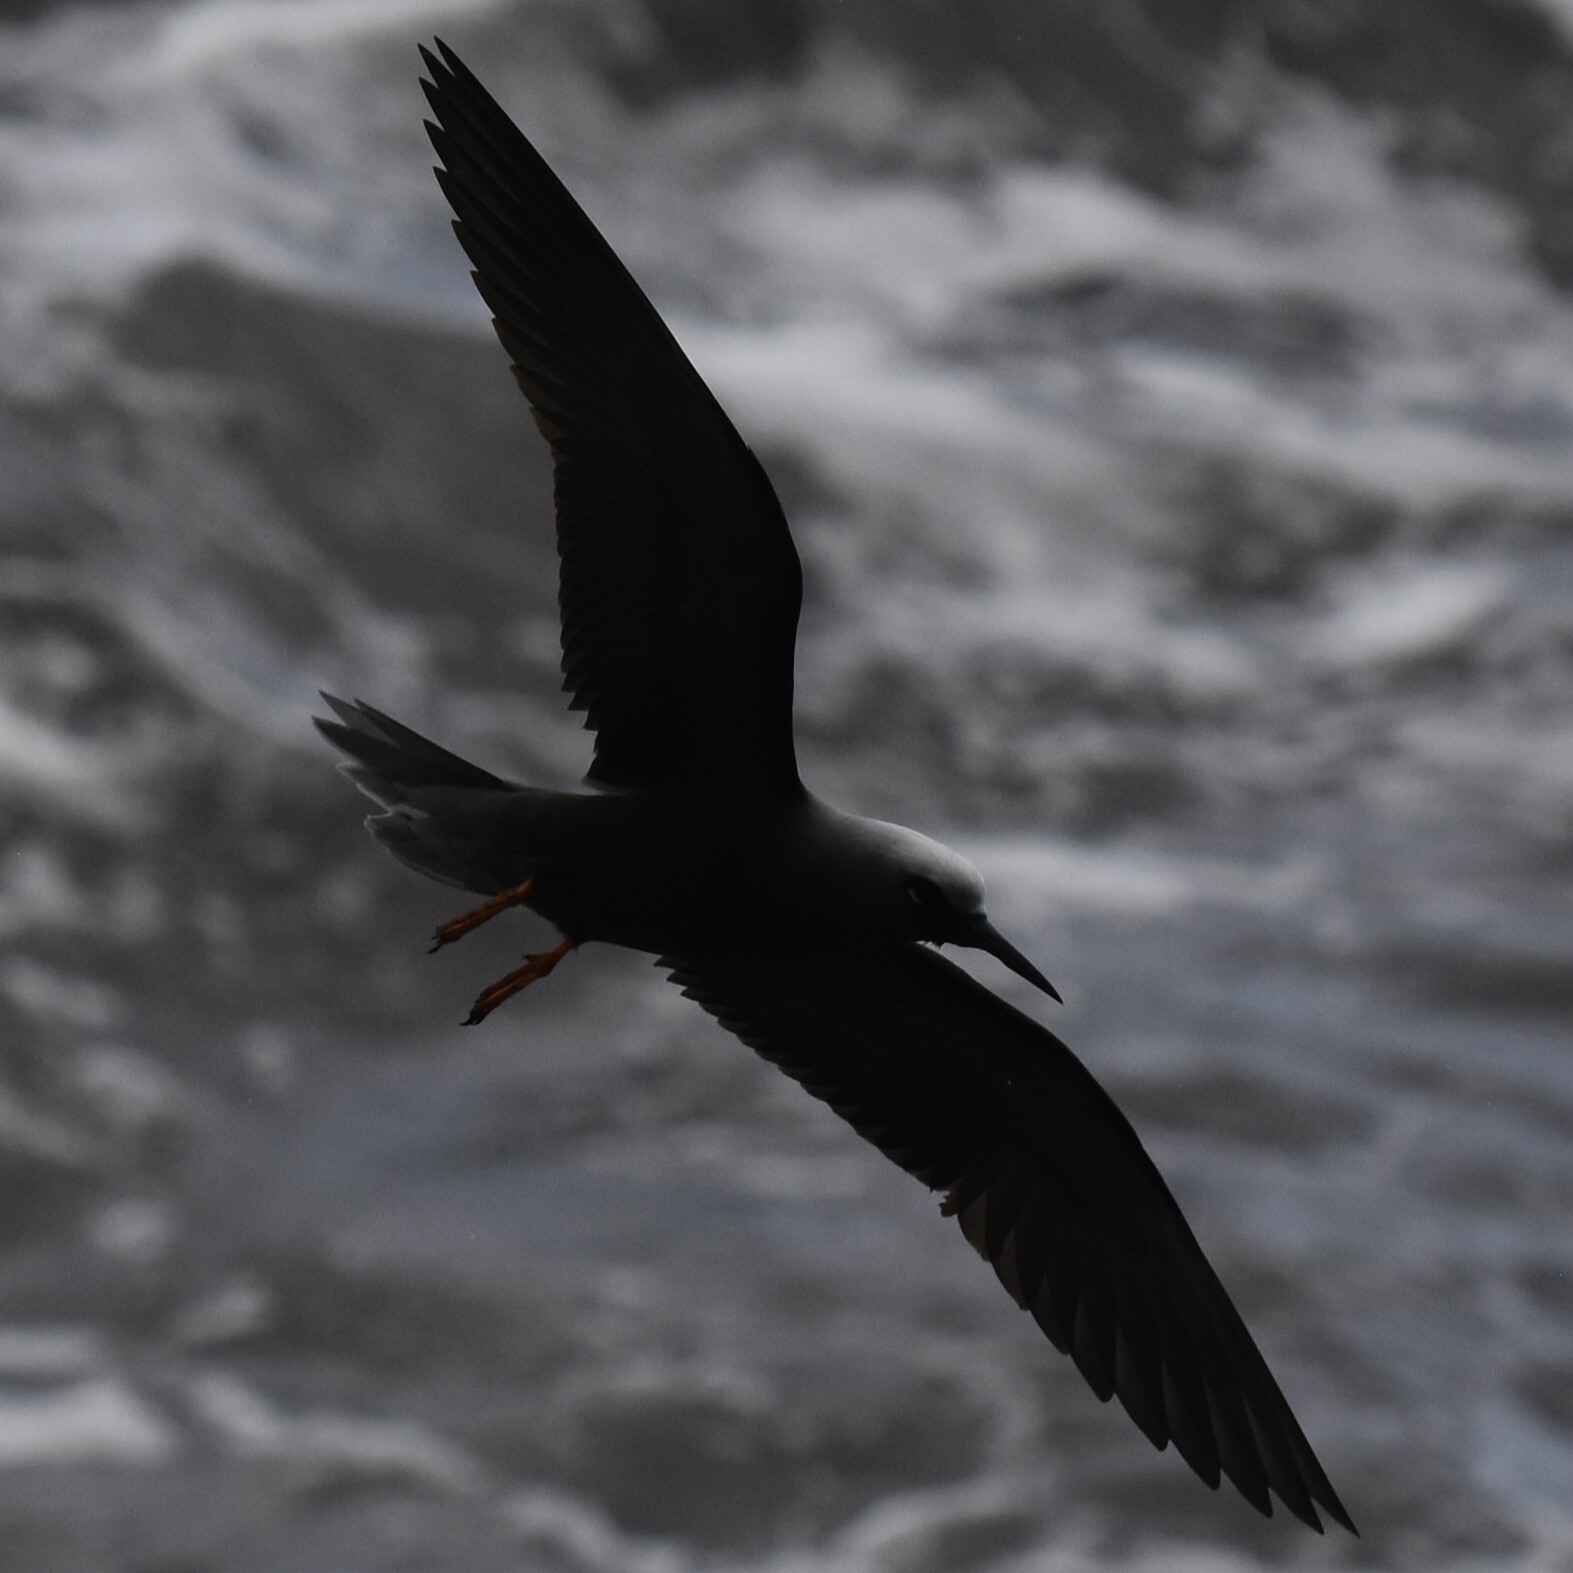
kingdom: Animalia
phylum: Chordata
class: Aves
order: Charadriiformes
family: Laridae
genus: Anous
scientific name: Anous minutus
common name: Black noddy
